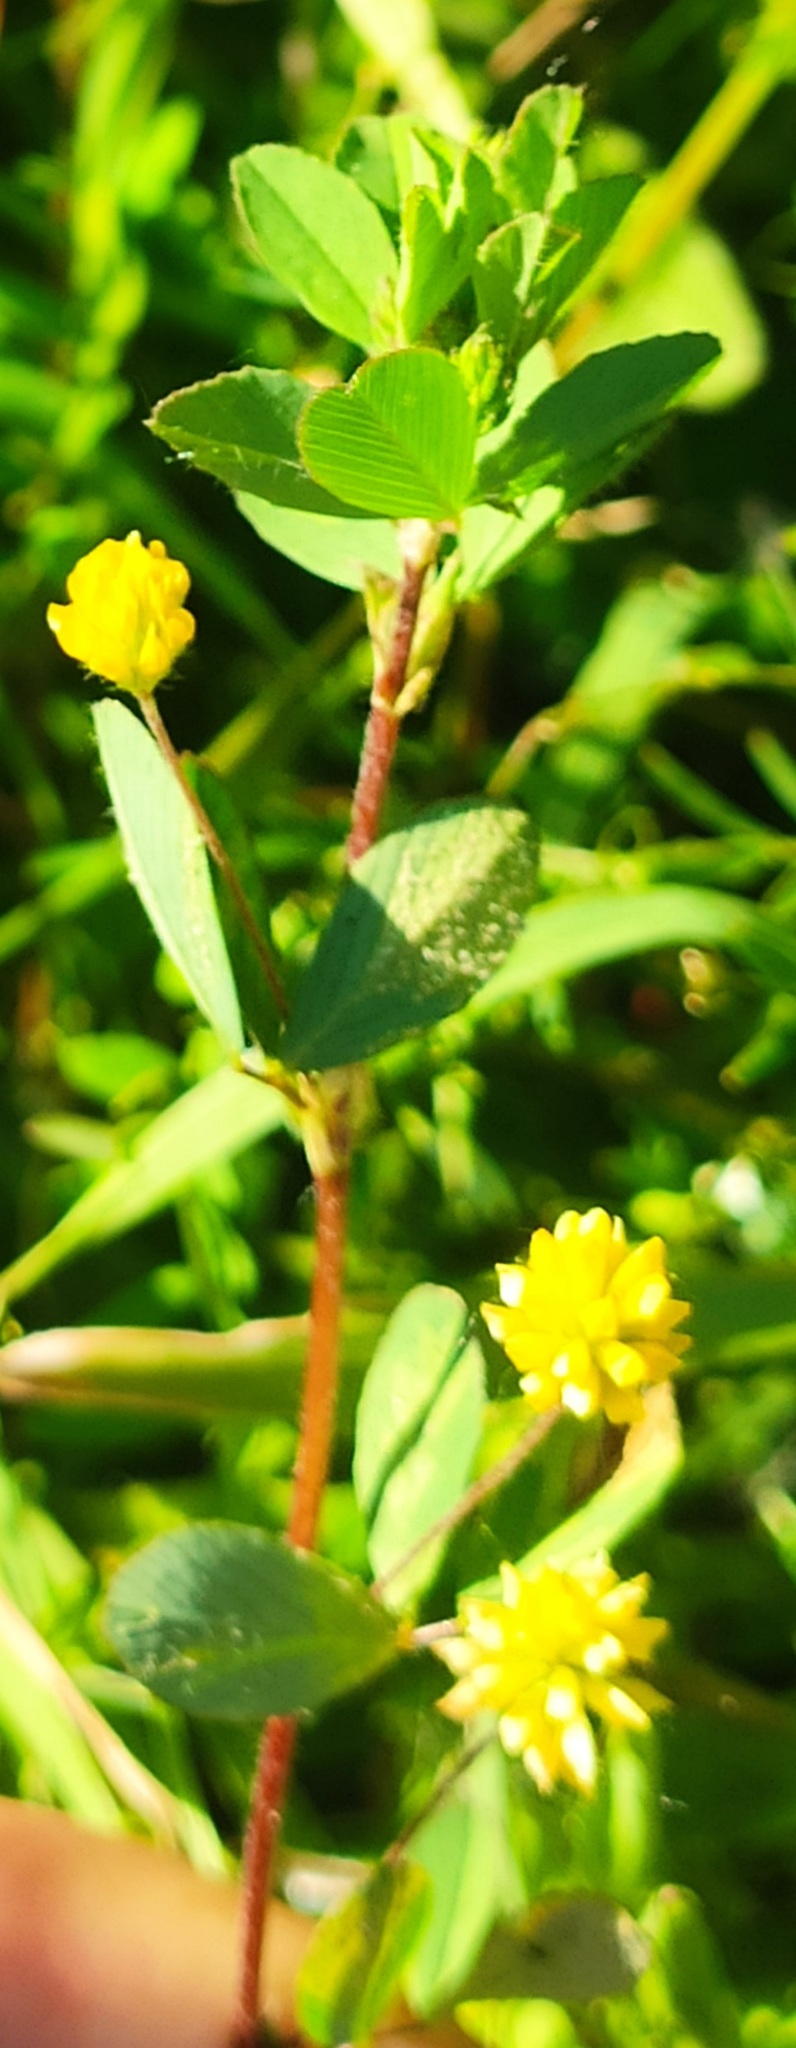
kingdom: Plantae
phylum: Tracheophyta
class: Magnoliopsida
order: Fabales
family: Fabaceae
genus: Trifolium
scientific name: Trifolium dubium
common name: Suckling clover
